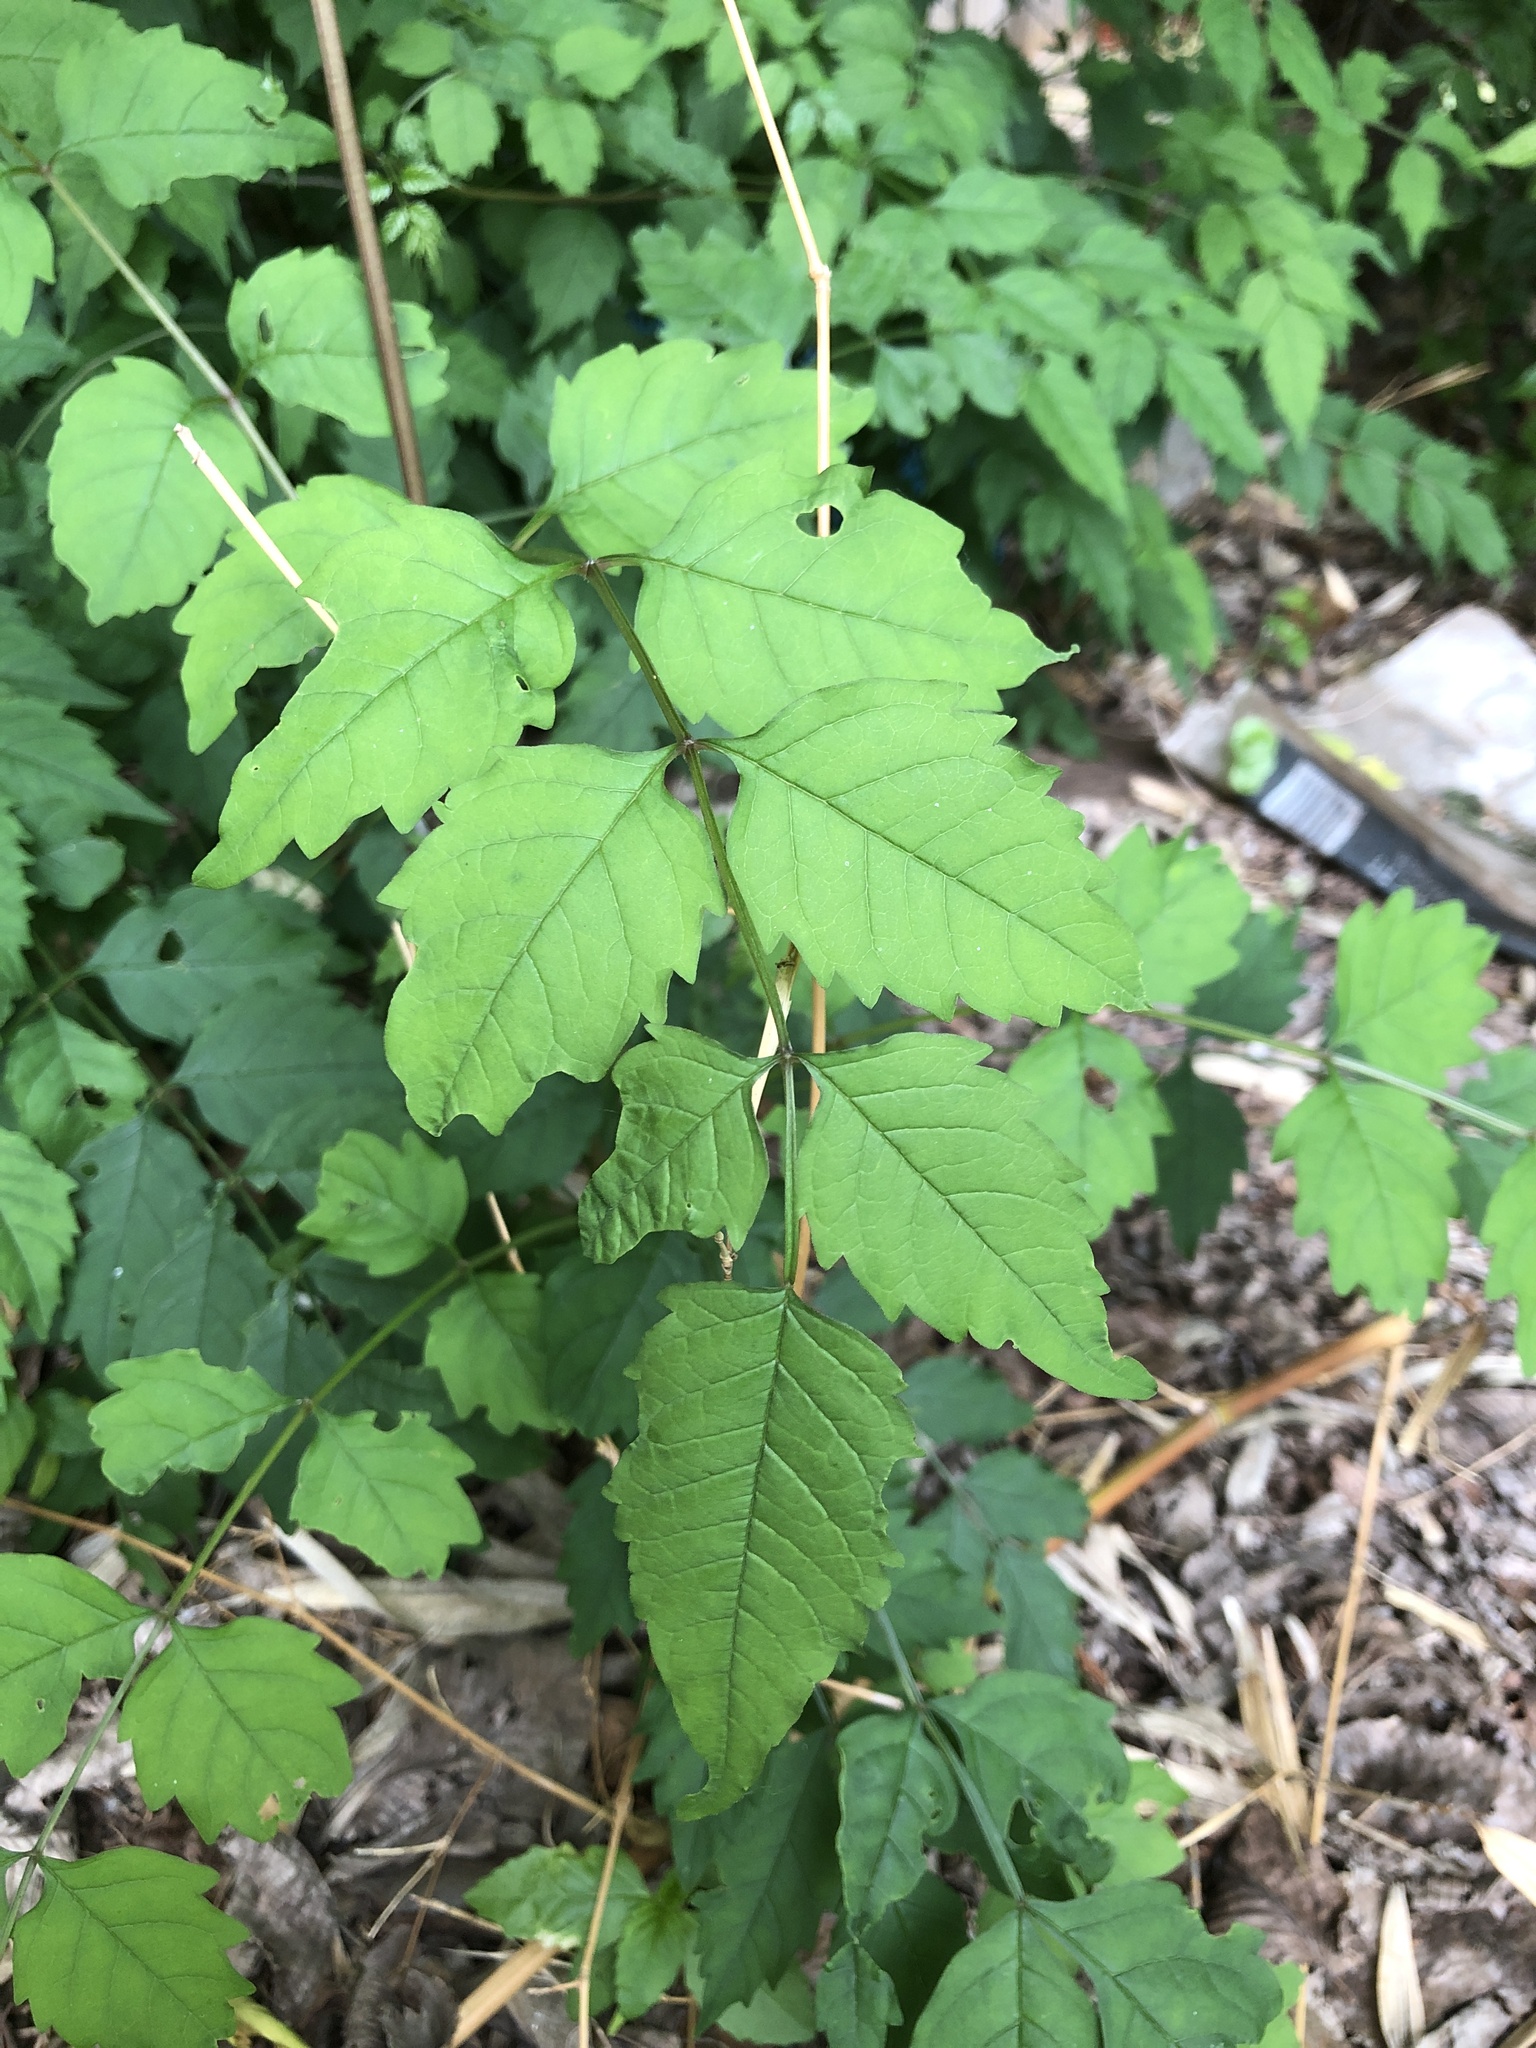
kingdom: Plantae
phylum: Tracheophyta
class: Magnoliopsida
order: Lamiales
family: Bignoniaceae
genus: Campsis
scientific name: Campsis radicans
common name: Trumpet-creeper
